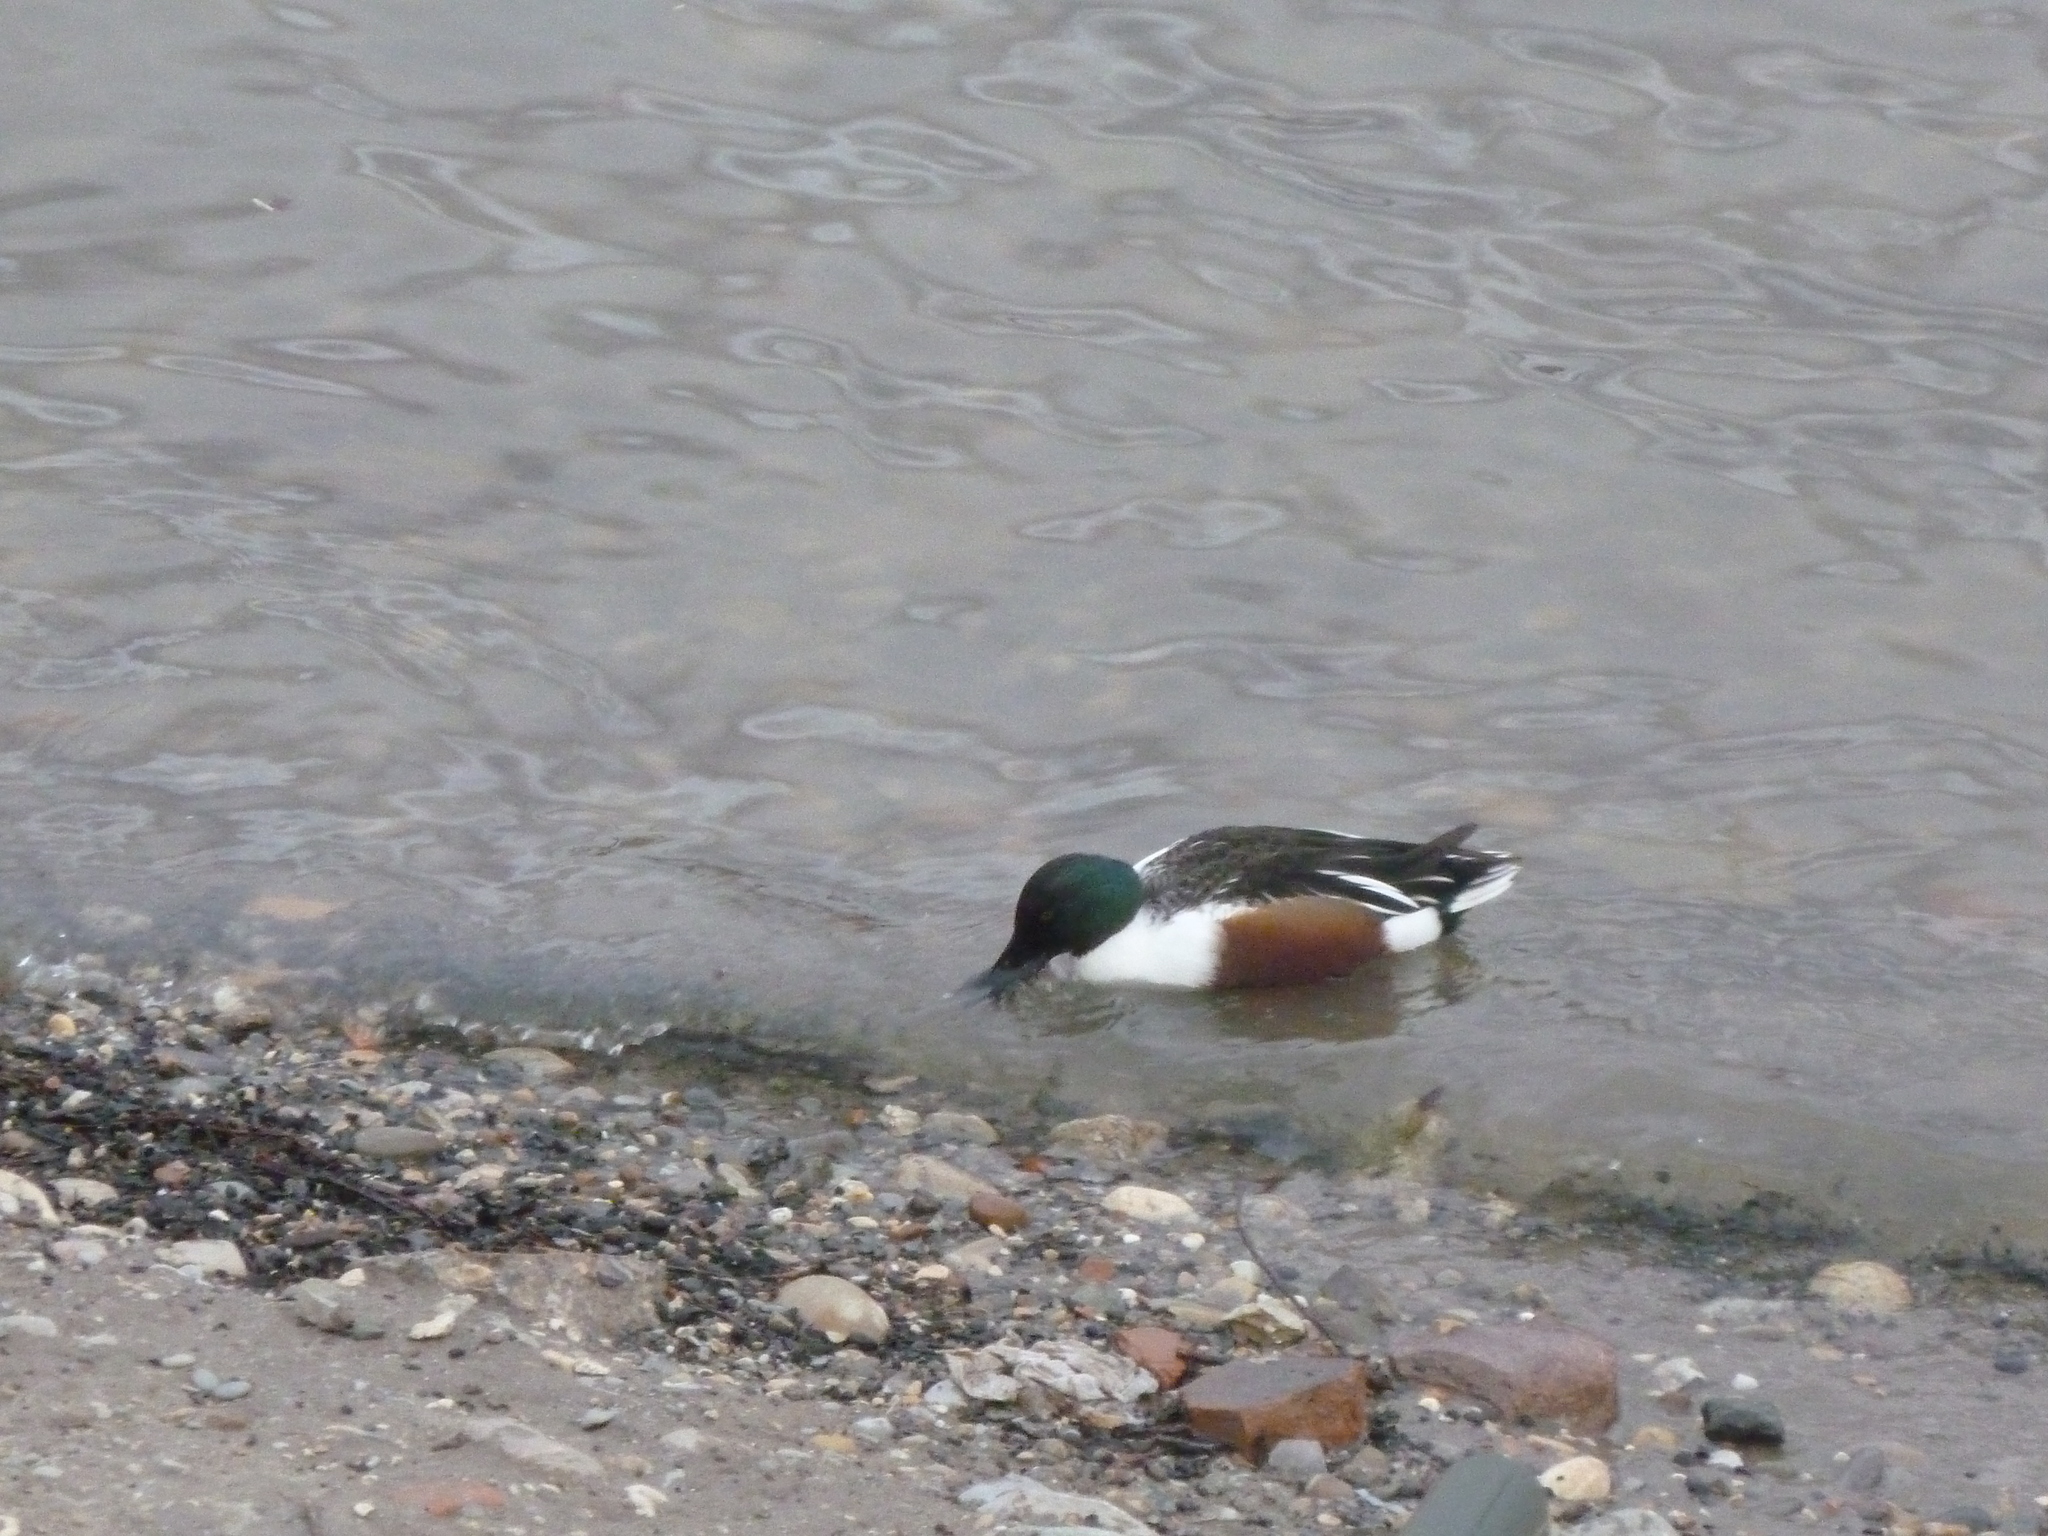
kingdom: Animalia
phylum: Chordata
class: Aves
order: Anseriformes
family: Anatidae
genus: Spatula
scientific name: Spatula clypeata
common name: Northern shoveler
